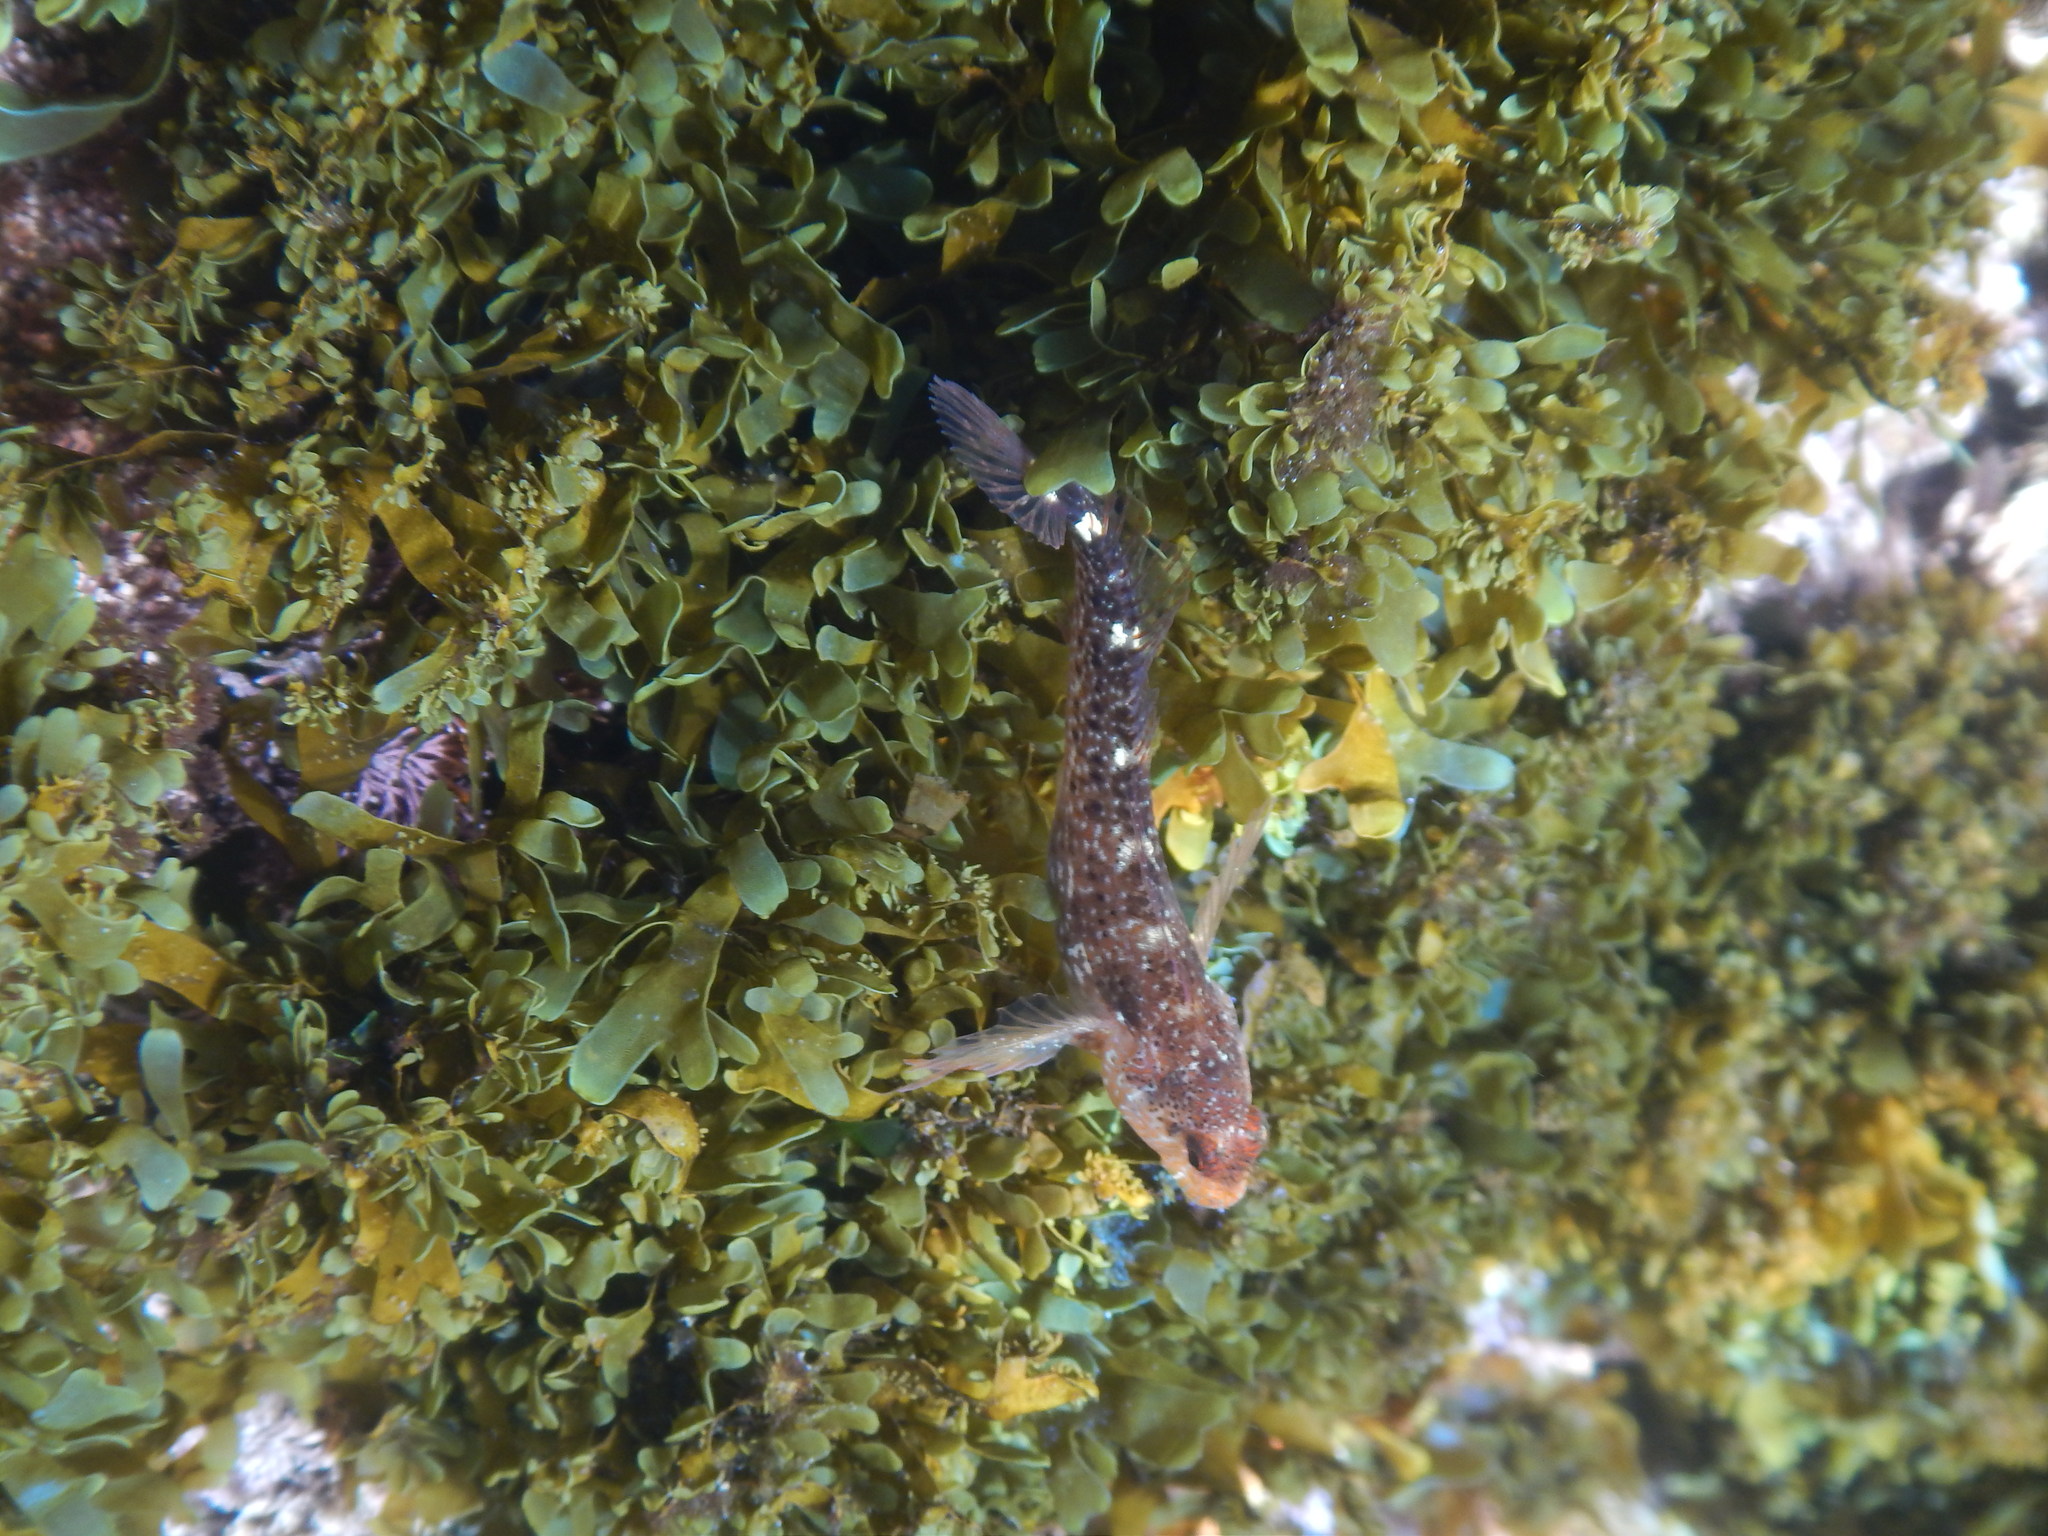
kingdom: Animalia
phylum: Chordata
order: Perciformes
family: Blenniidae
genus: Parablennius
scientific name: Parablennius zvonimiri
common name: Red blenny
